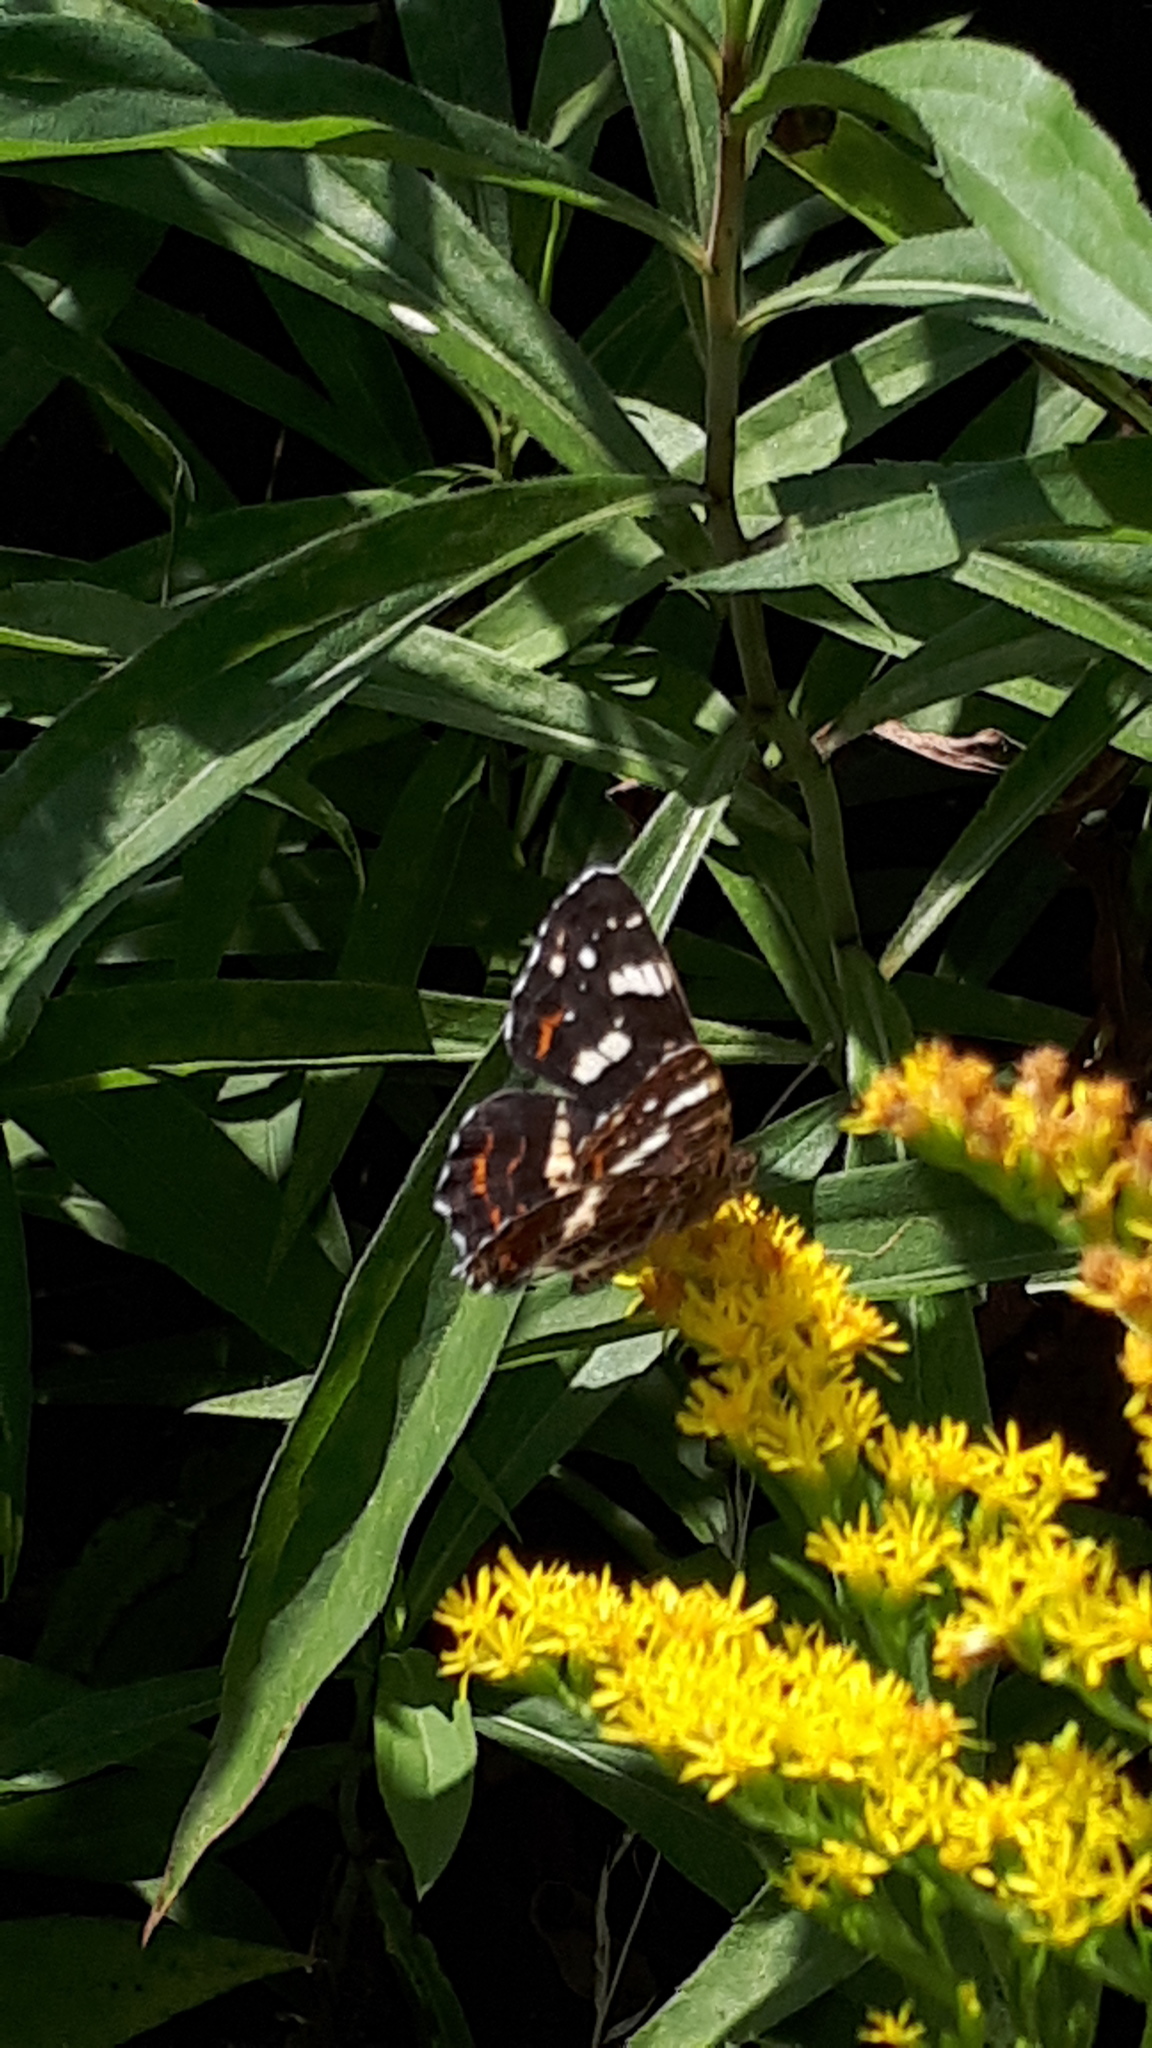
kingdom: Animalia
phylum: Arthropoda
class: Insecta
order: Lepidoptera
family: Nymphalidae
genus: Araschnia
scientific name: Araschnia levana
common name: Map butterfly
